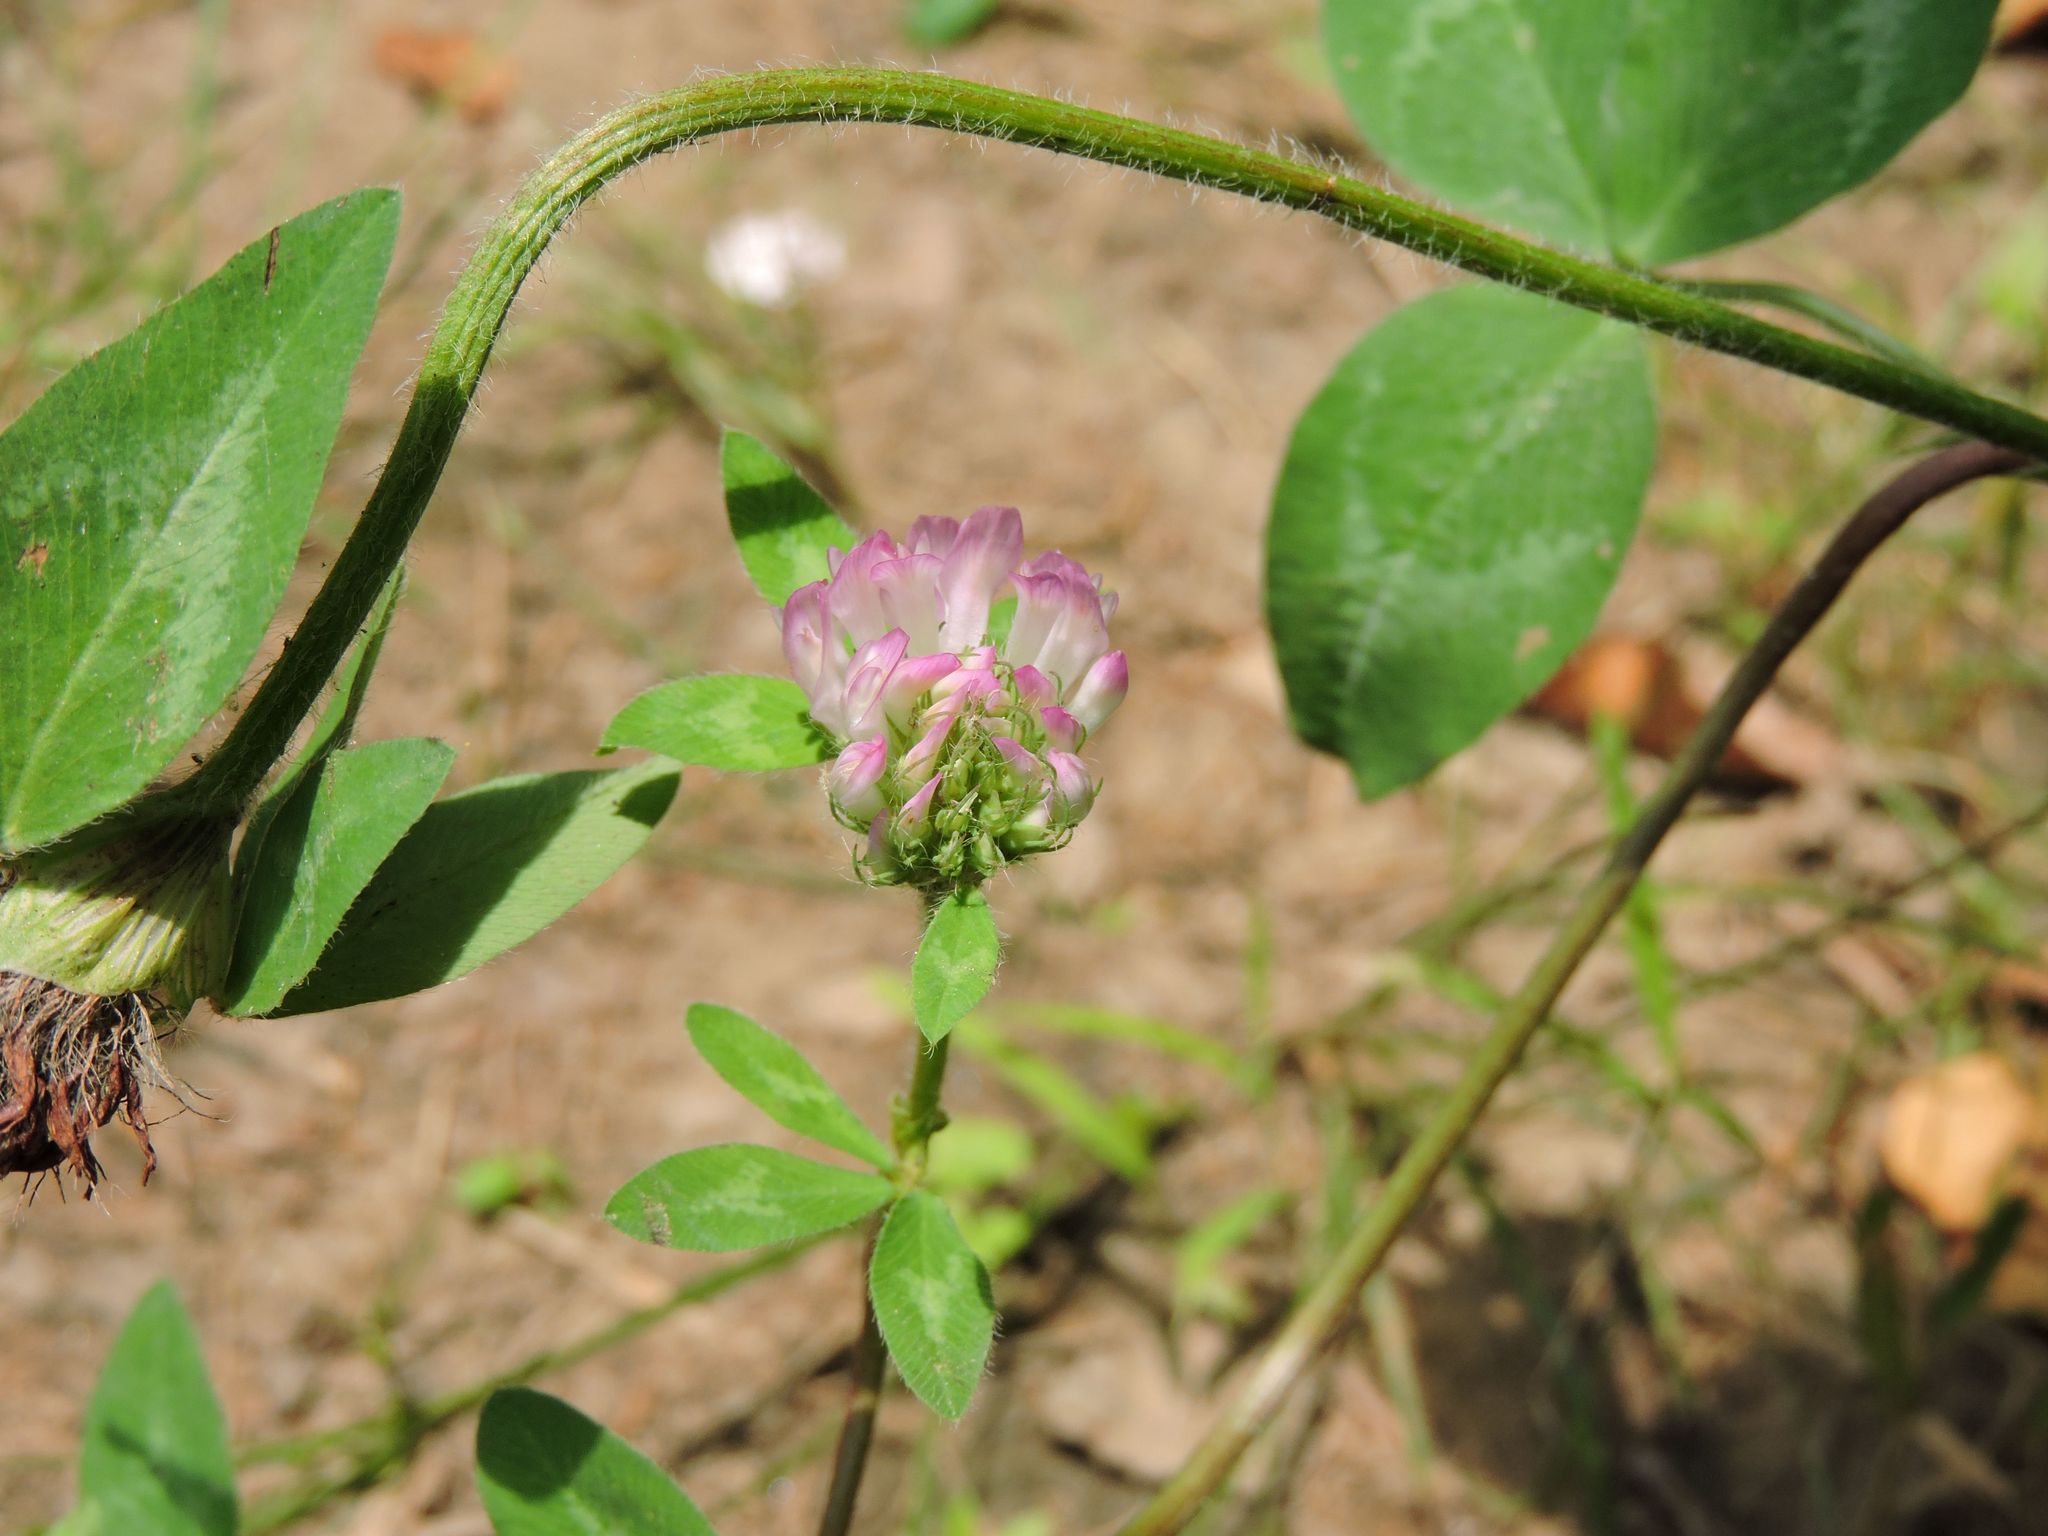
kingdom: Plantae
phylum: Tracheophyta
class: Magnoliopsida
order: Fabales
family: Fabaceae
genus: Trifolium
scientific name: Trifolium pratense
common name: Red clover
